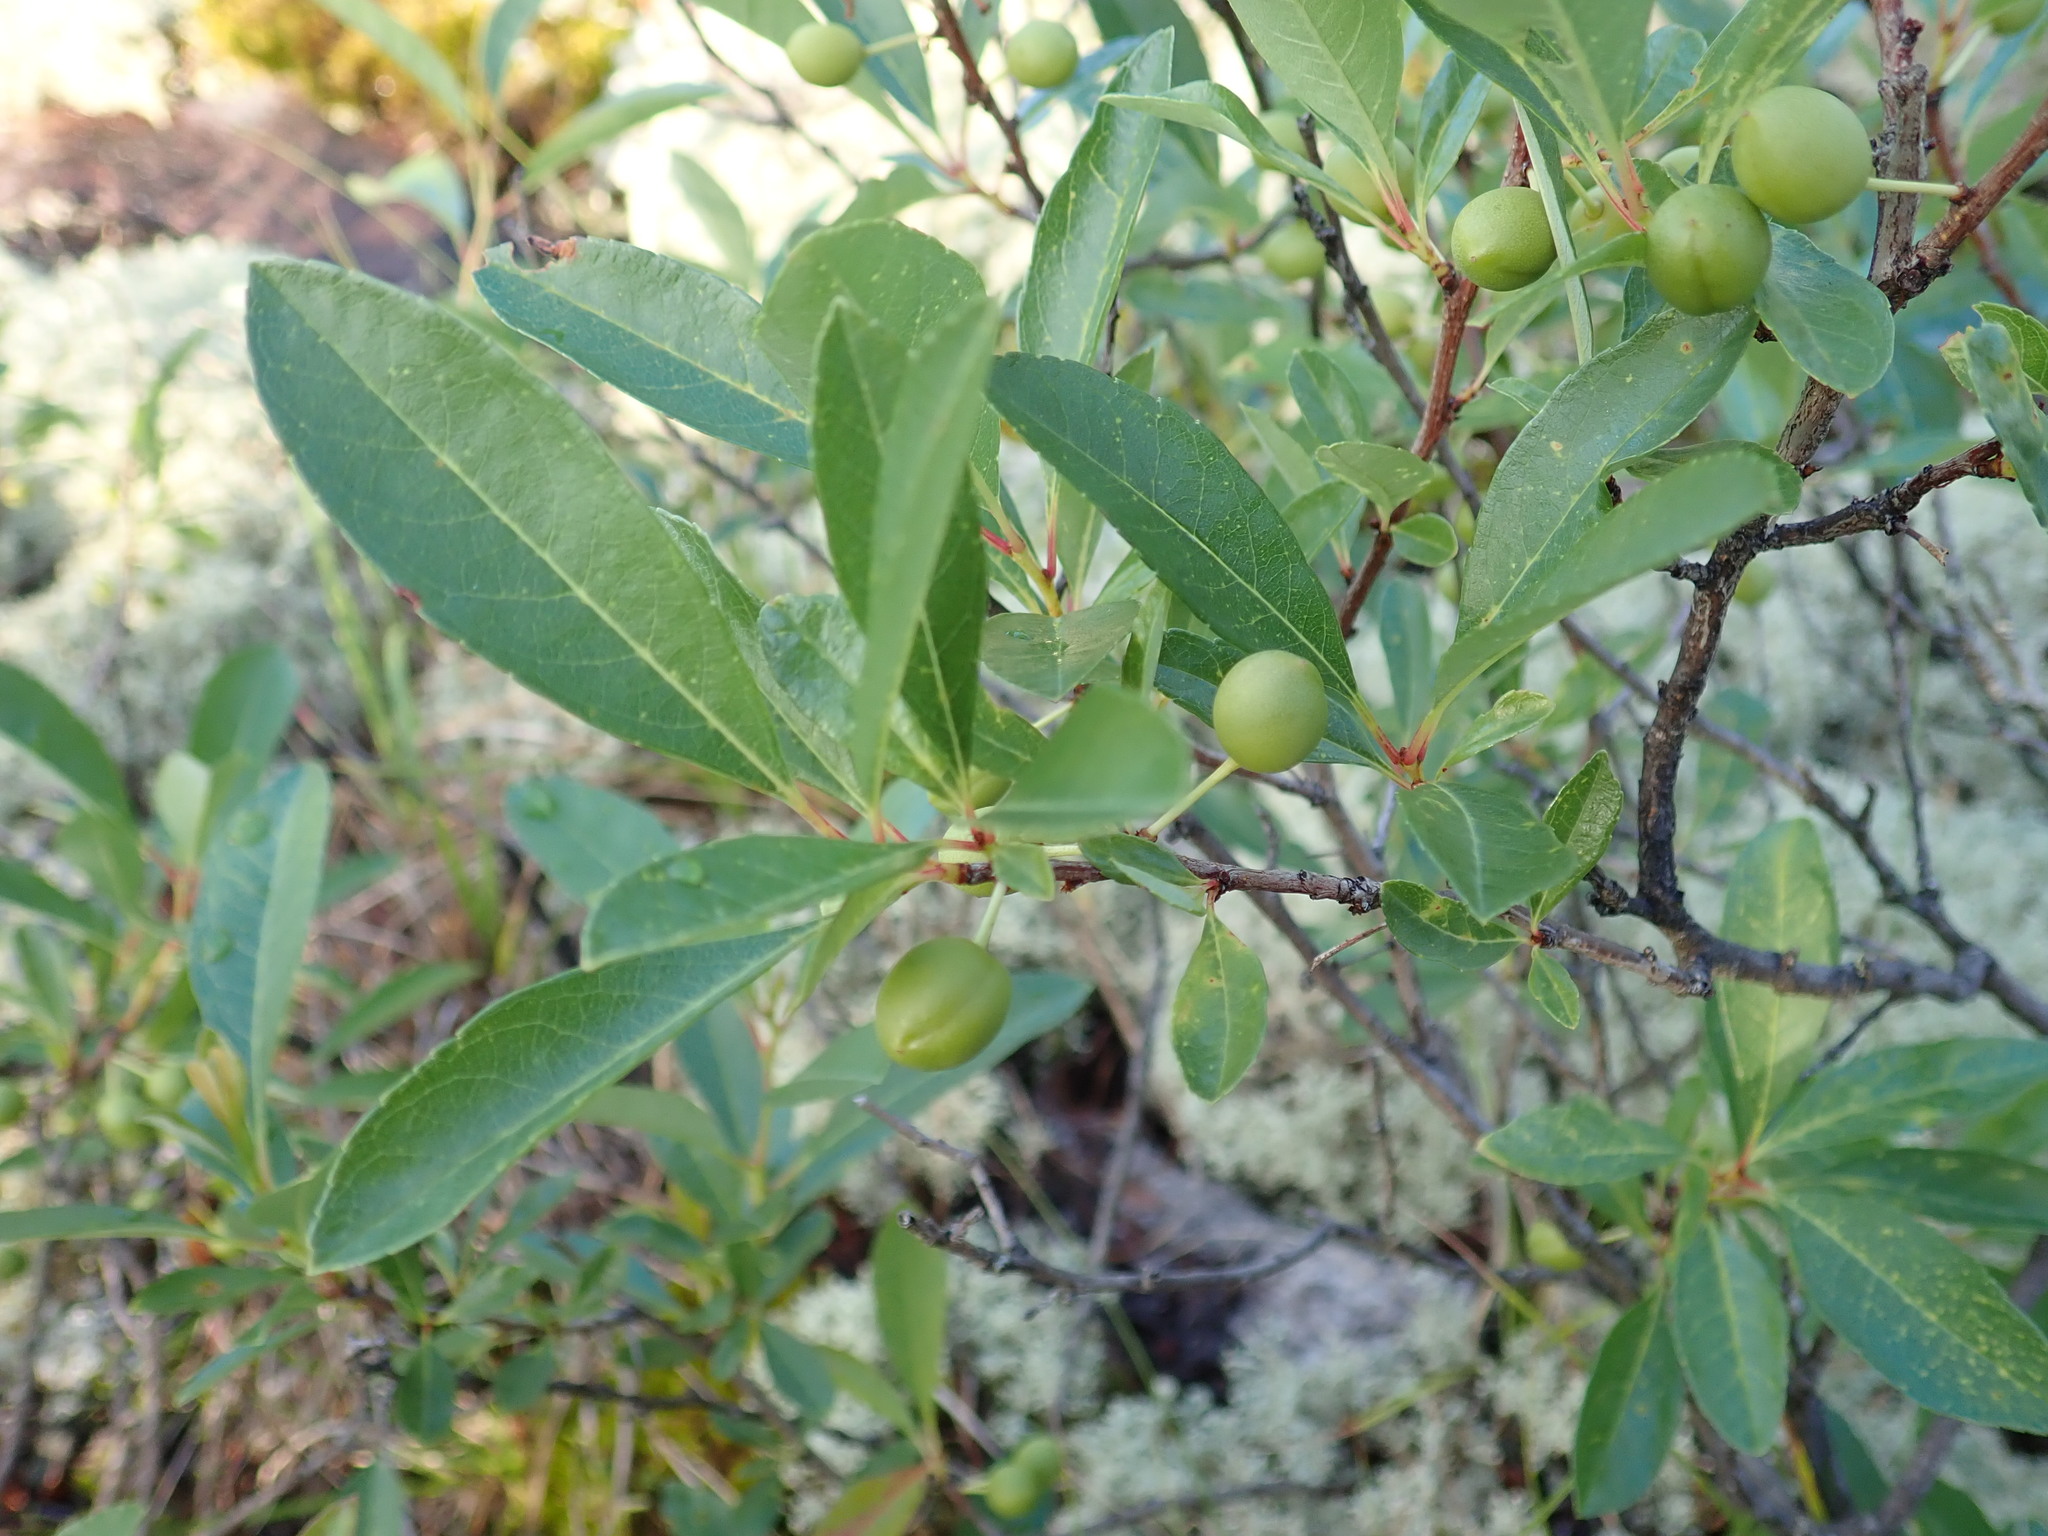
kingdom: Plantae
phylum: Tracheophyta
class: Magnoliopsida
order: Rosales
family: Rosaceae
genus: Prunus
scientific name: Prunus pumila
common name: Dwarf cherry
